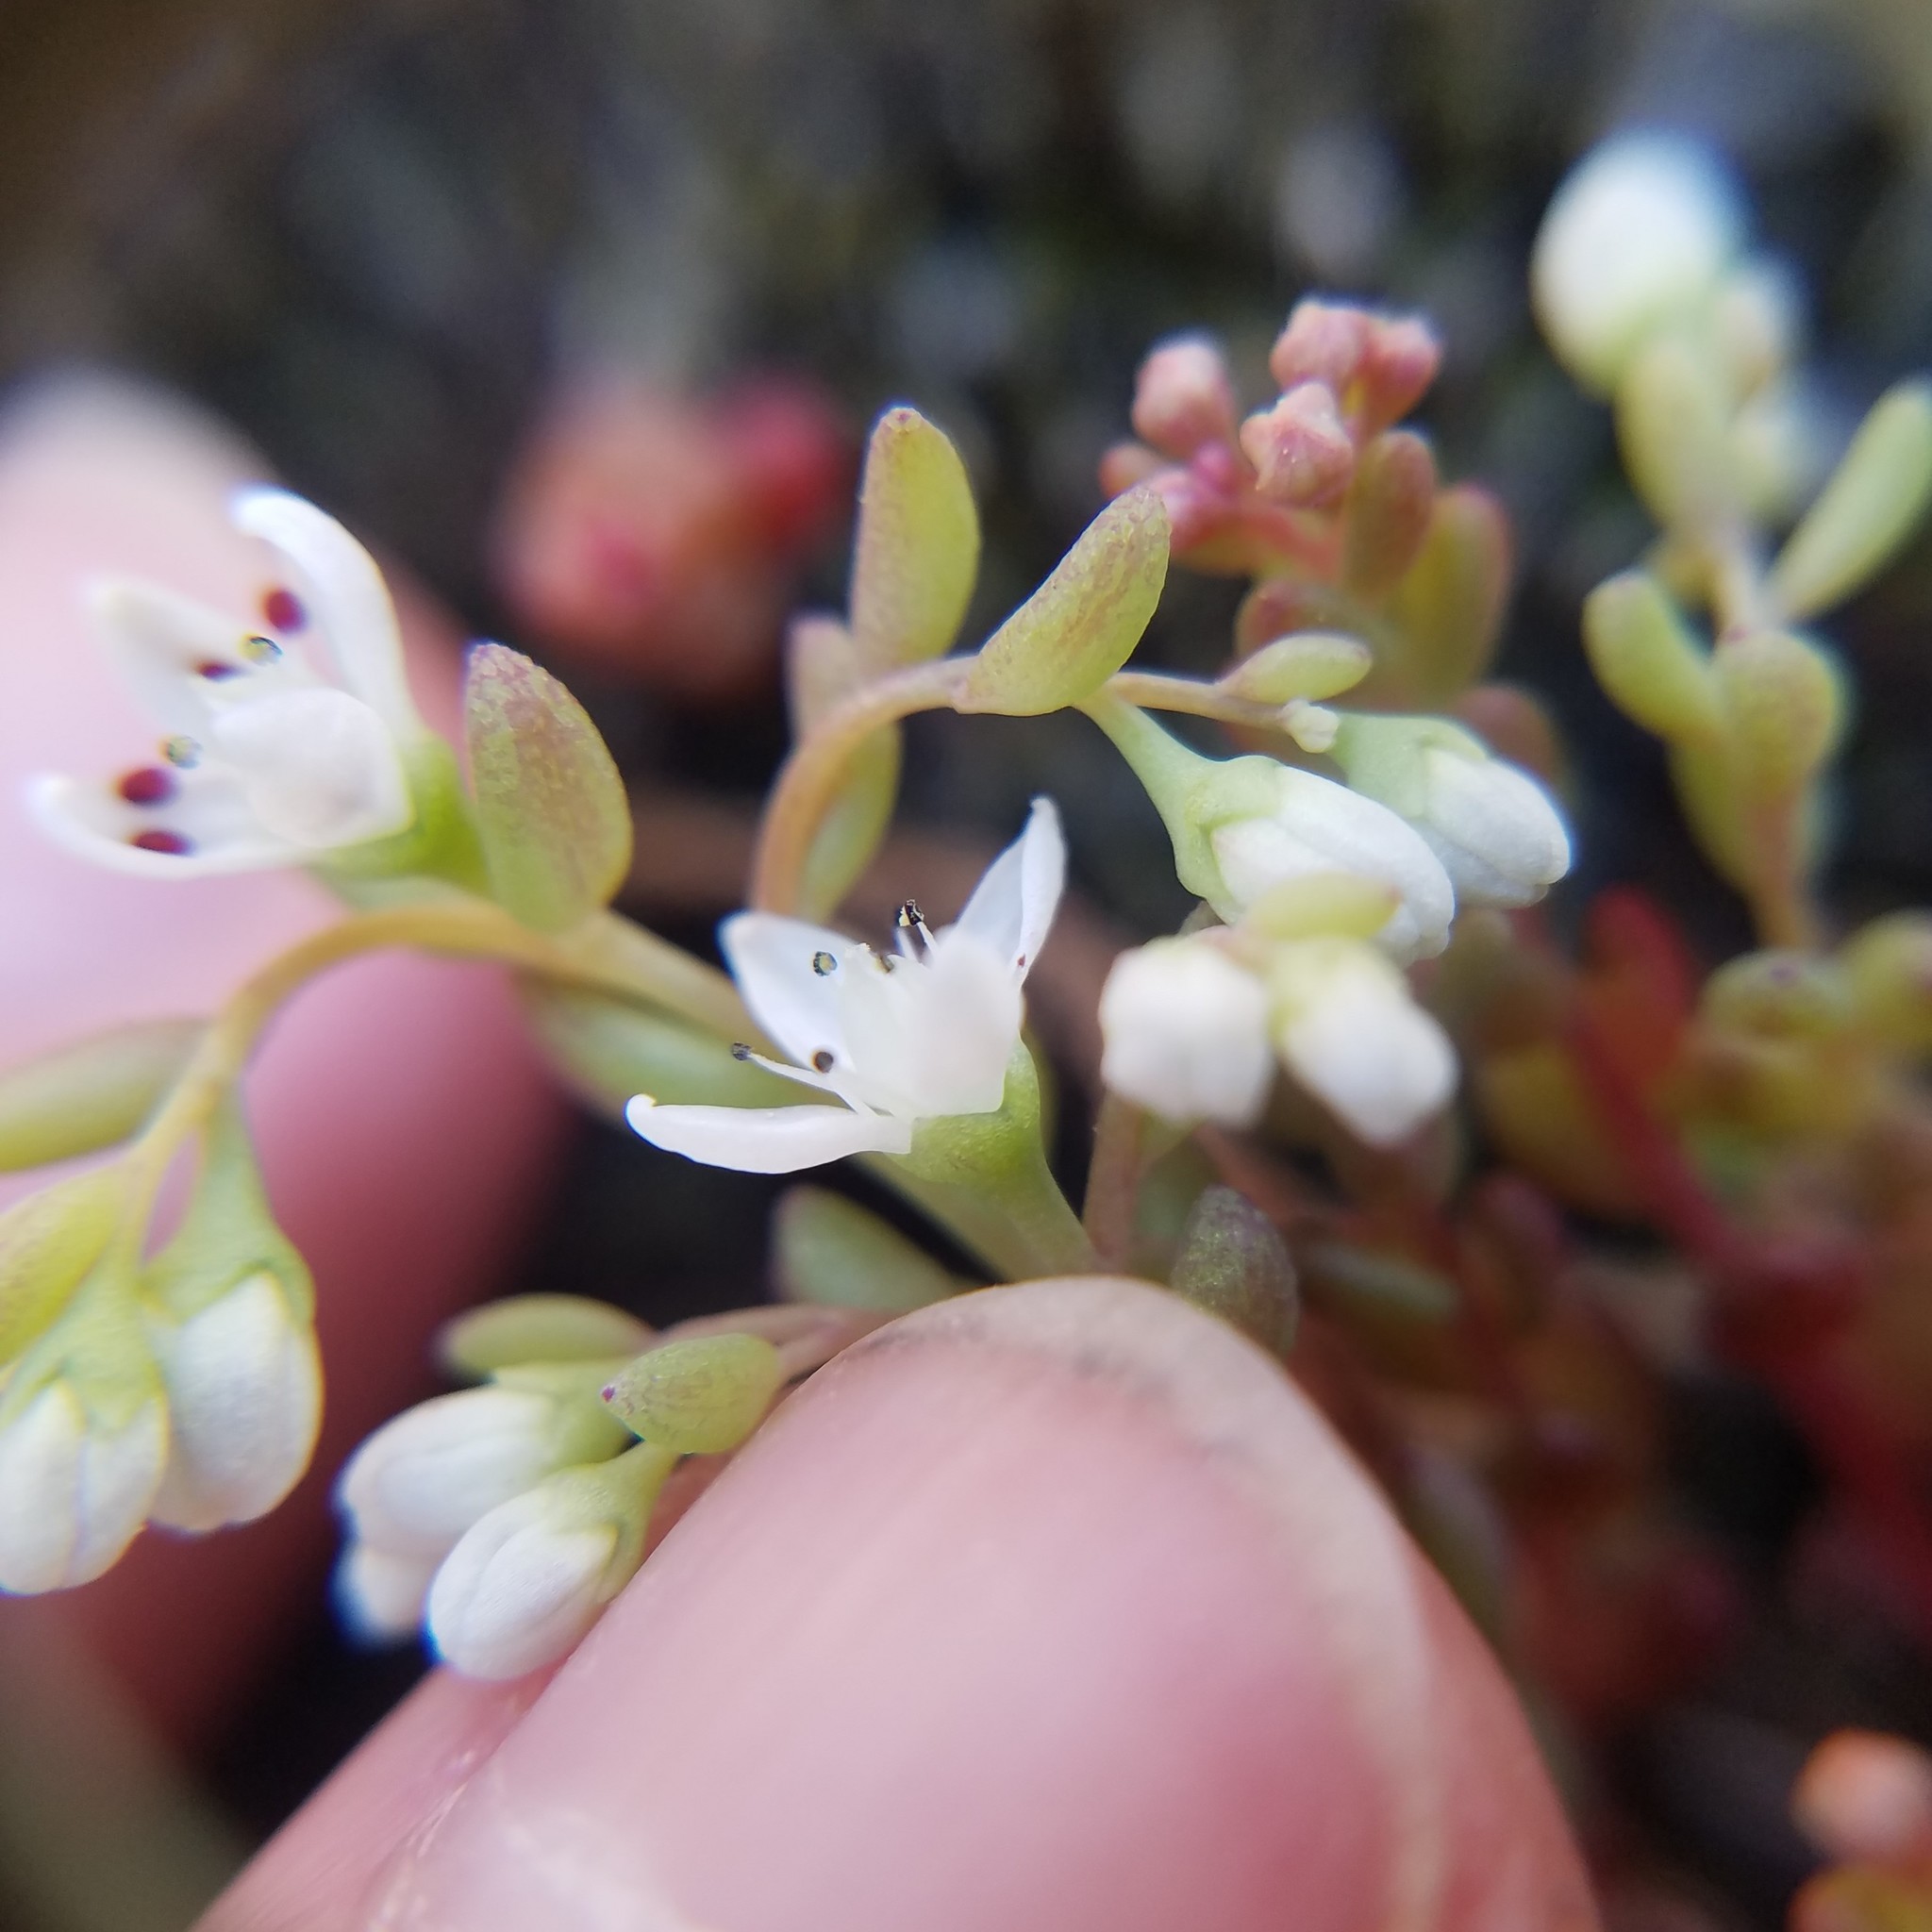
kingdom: Plantae
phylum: Tracheophyta
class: Magnoliopsida
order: Saxifragales
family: Crassulaceae
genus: Sedum
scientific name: Sedum pusillum
